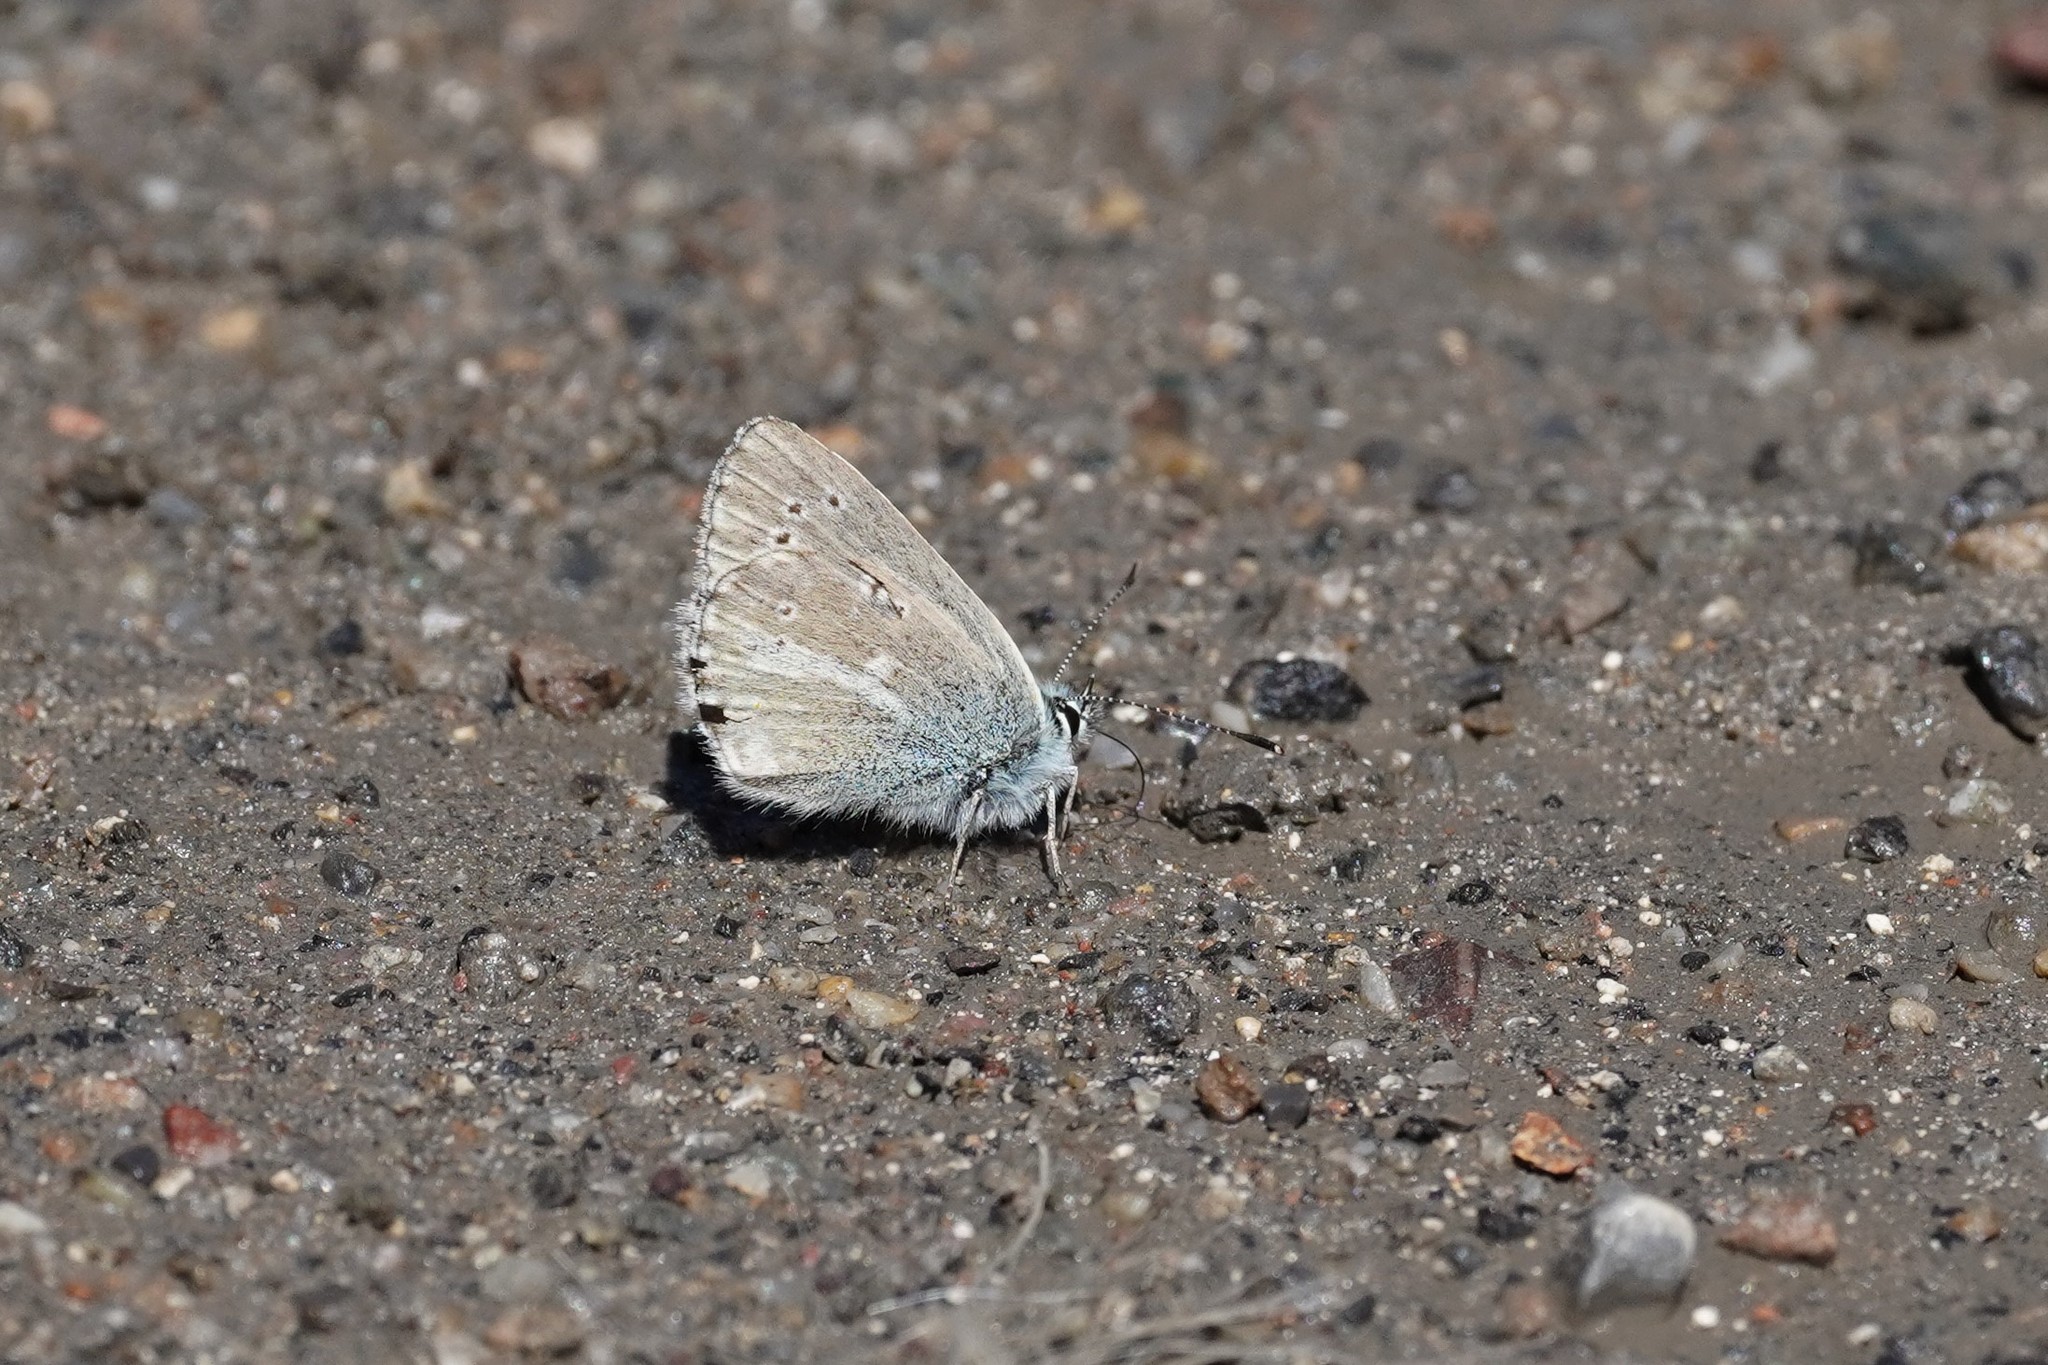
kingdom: Animalia
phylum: Arthropoda
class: Insecta
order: Lepidoptera
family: Lycaenidae
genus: Pseudoaricia
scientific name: Pseudoaricia nicias
